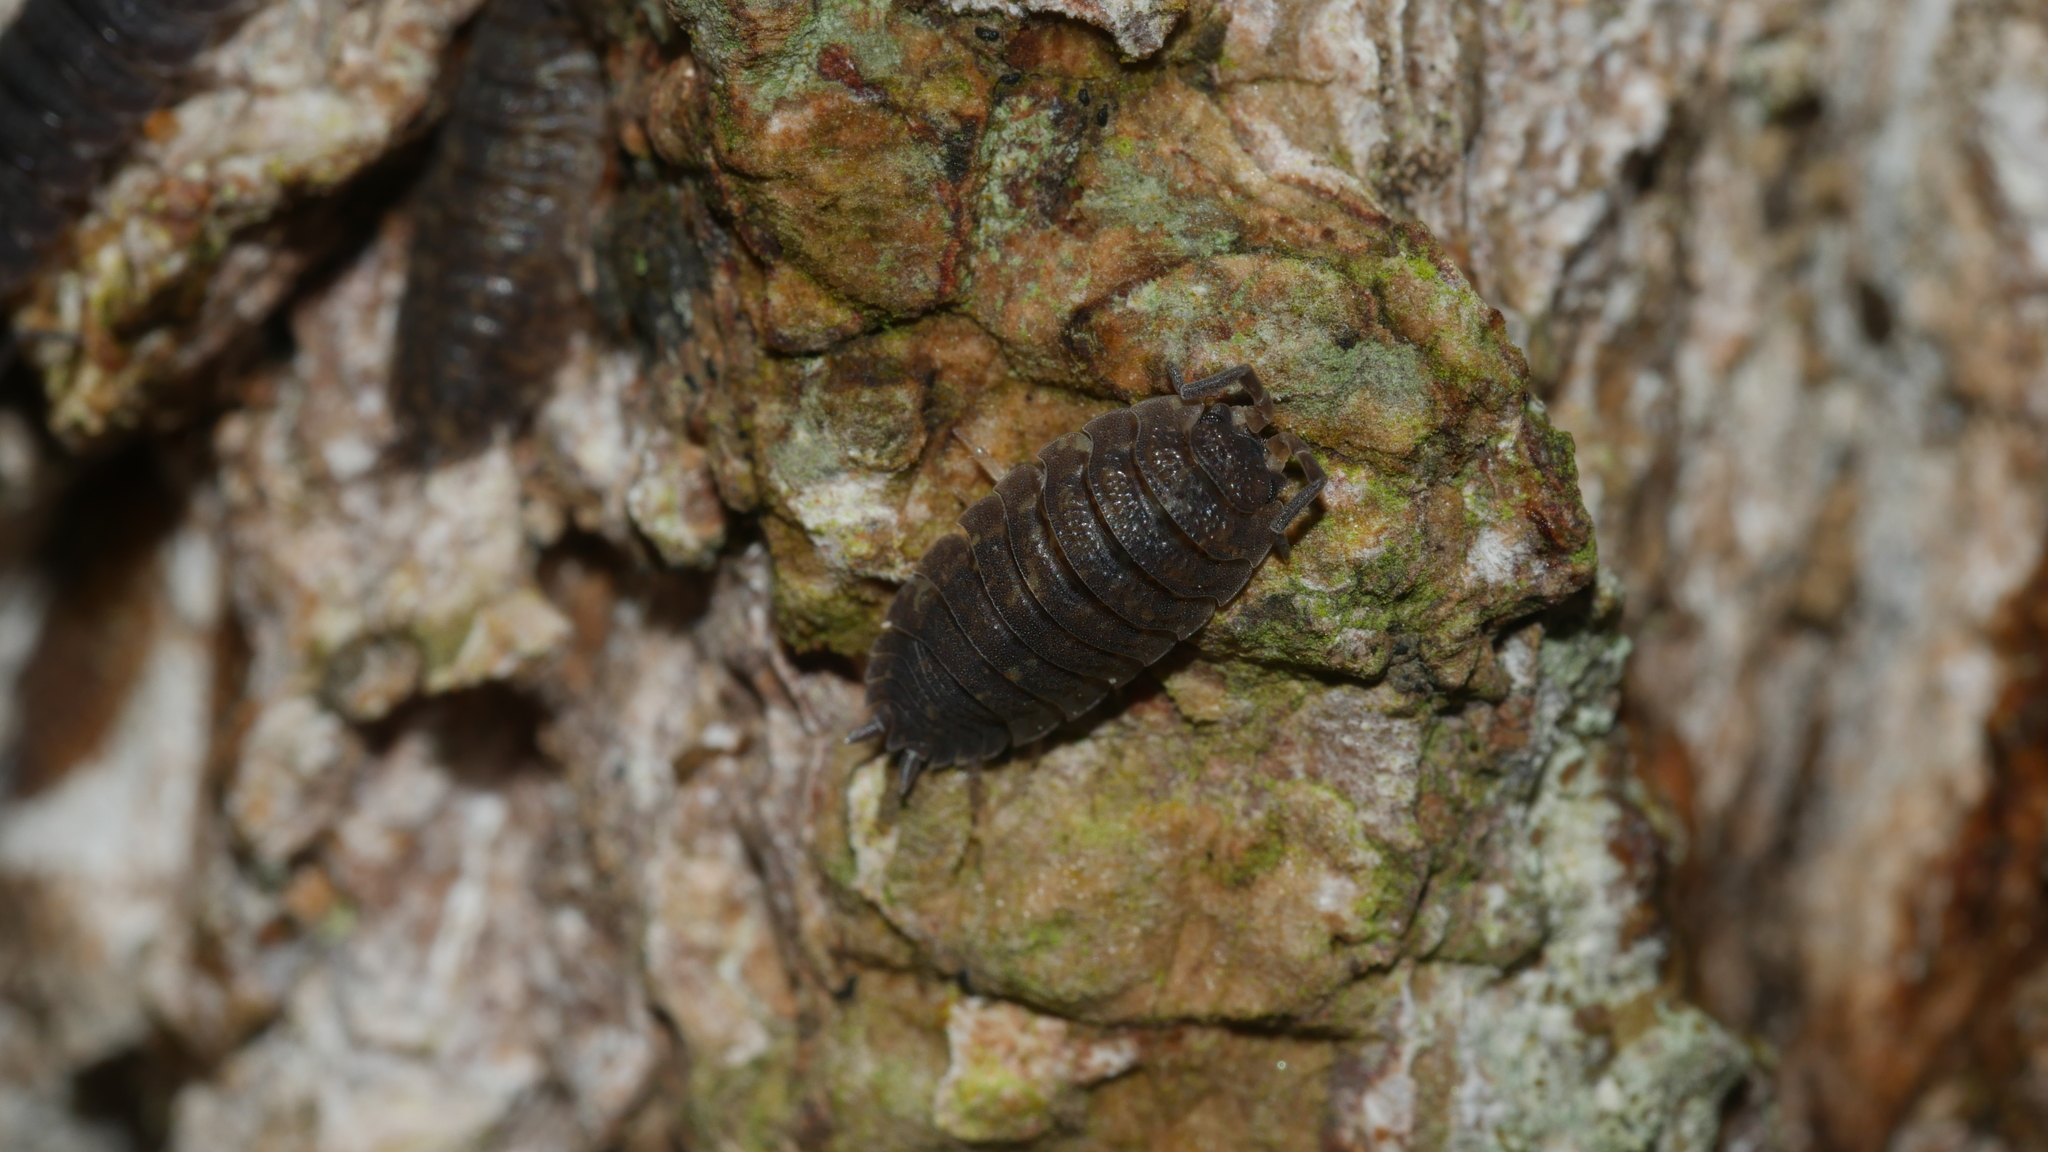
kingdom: Animalia
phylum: Arthropoda
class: Malacostraca
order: Isopoda
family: Porcellionidae
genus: Porcellio
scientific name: Porcellio scaber
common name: Common rough woodlouse
